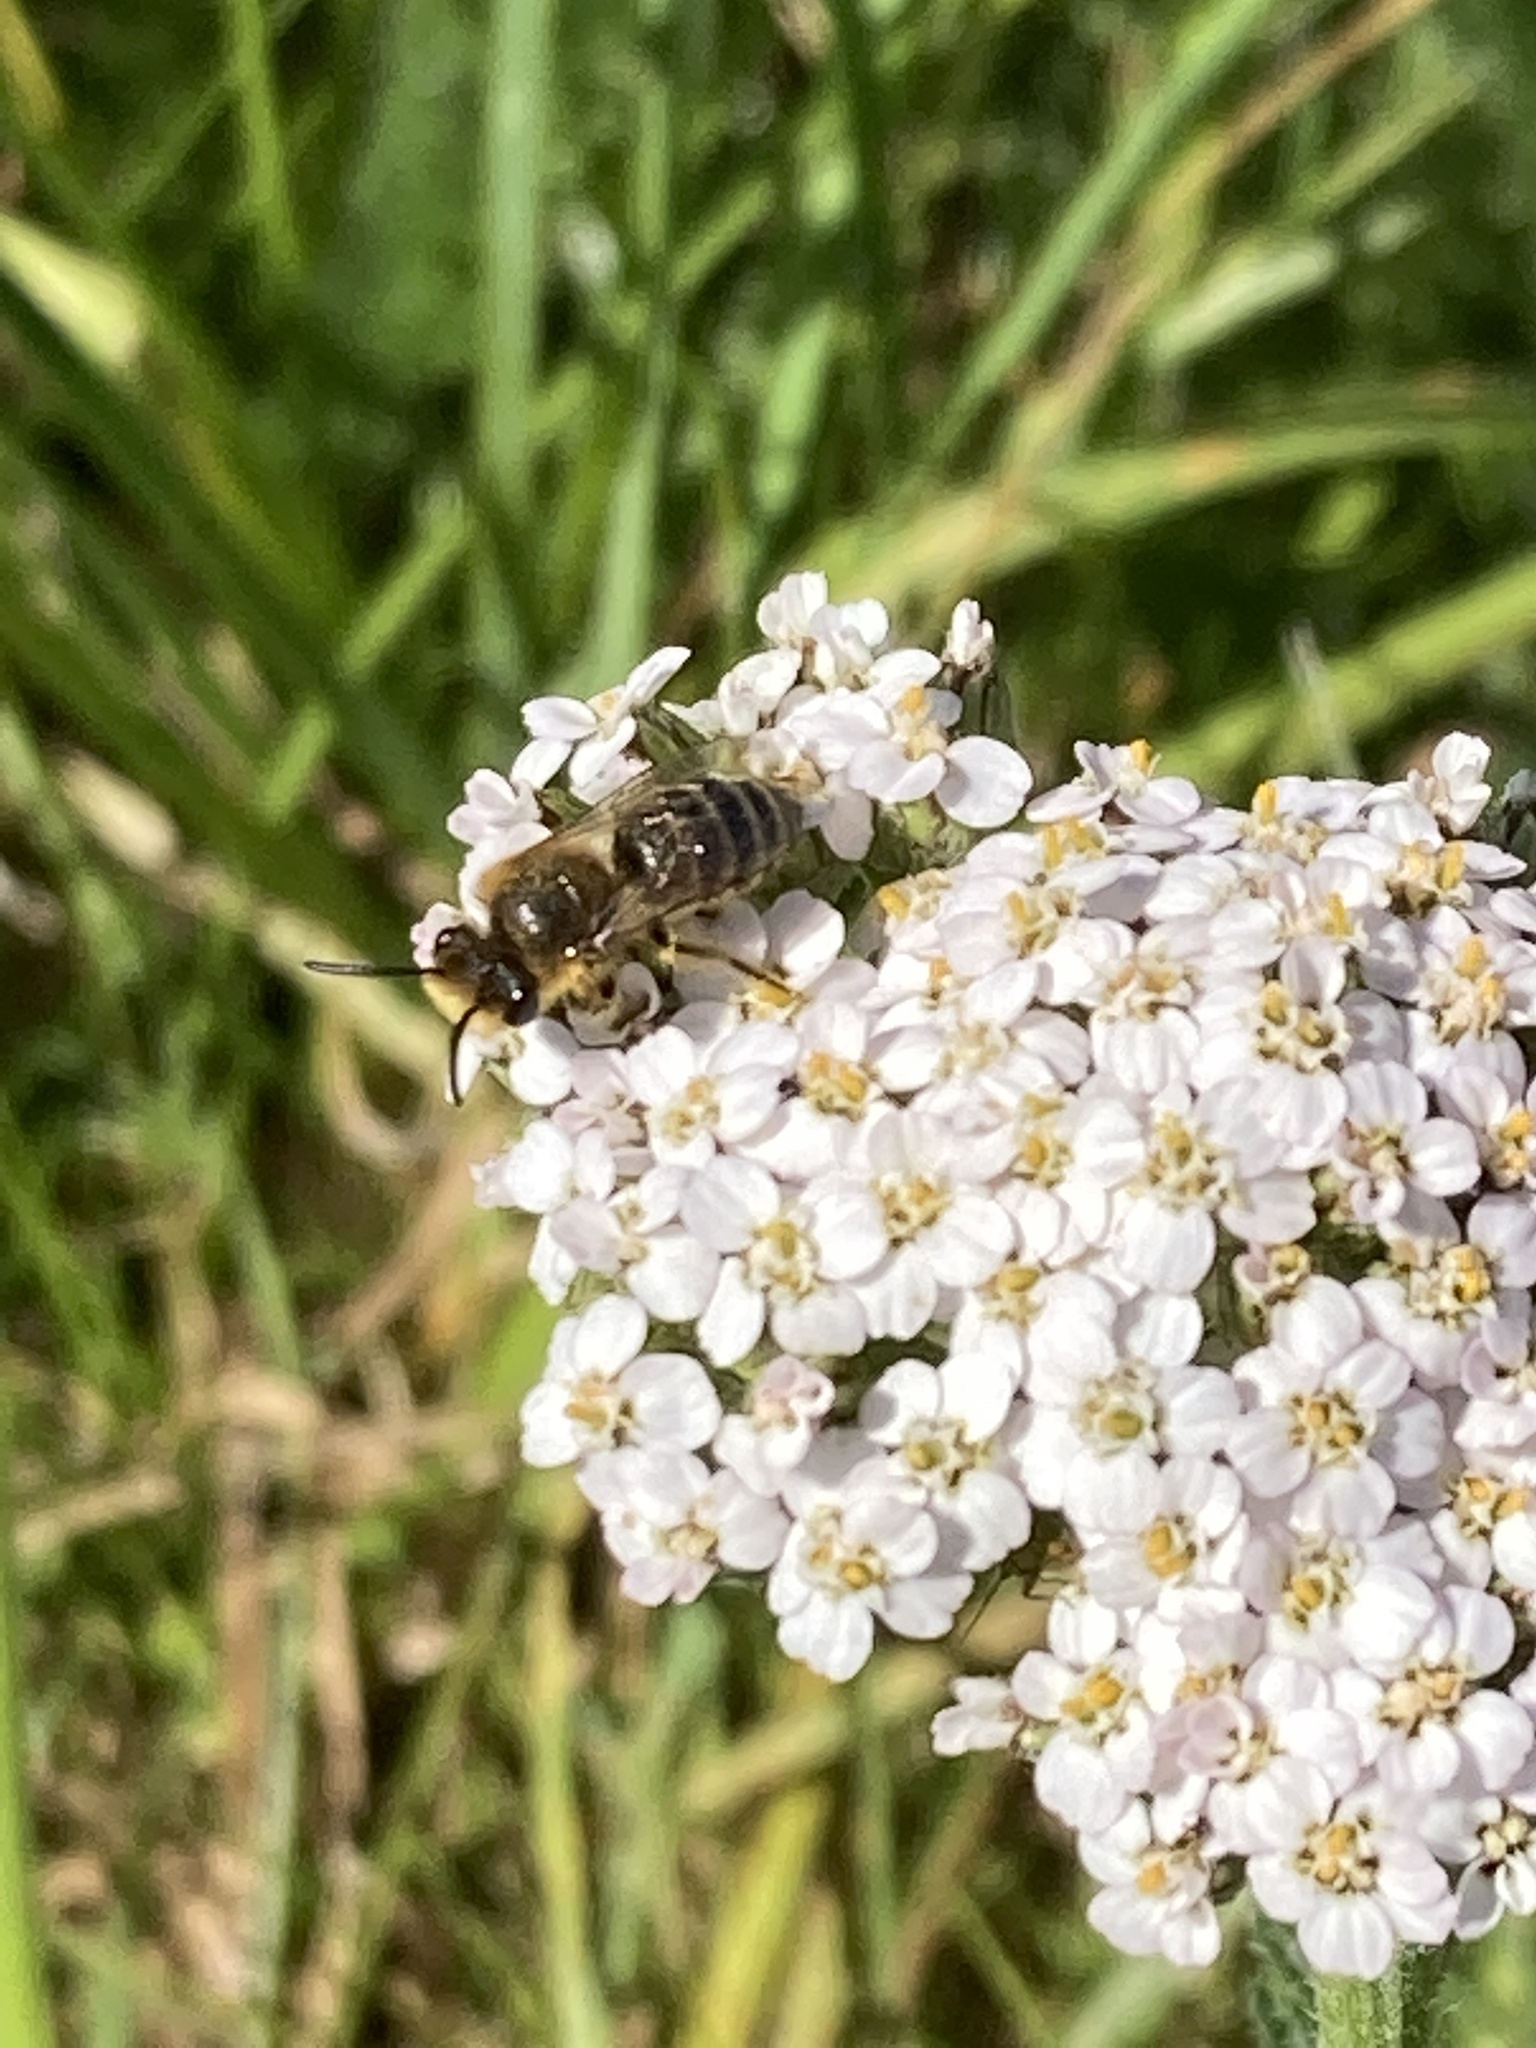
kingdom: Animalia
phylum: Arthropoda
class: Insecta
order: Hymenoptera
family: Colletidae
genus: Colletes
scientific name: Colletes
